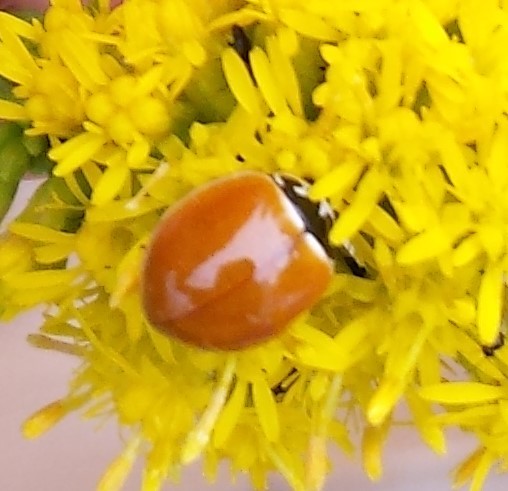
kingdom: Animalia
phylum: Arthropoda
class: Insecta
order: Coleoptera
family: Coccinellidae
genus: Cycloneda
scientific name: Cycloneda munda
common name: Polished lady beetle
